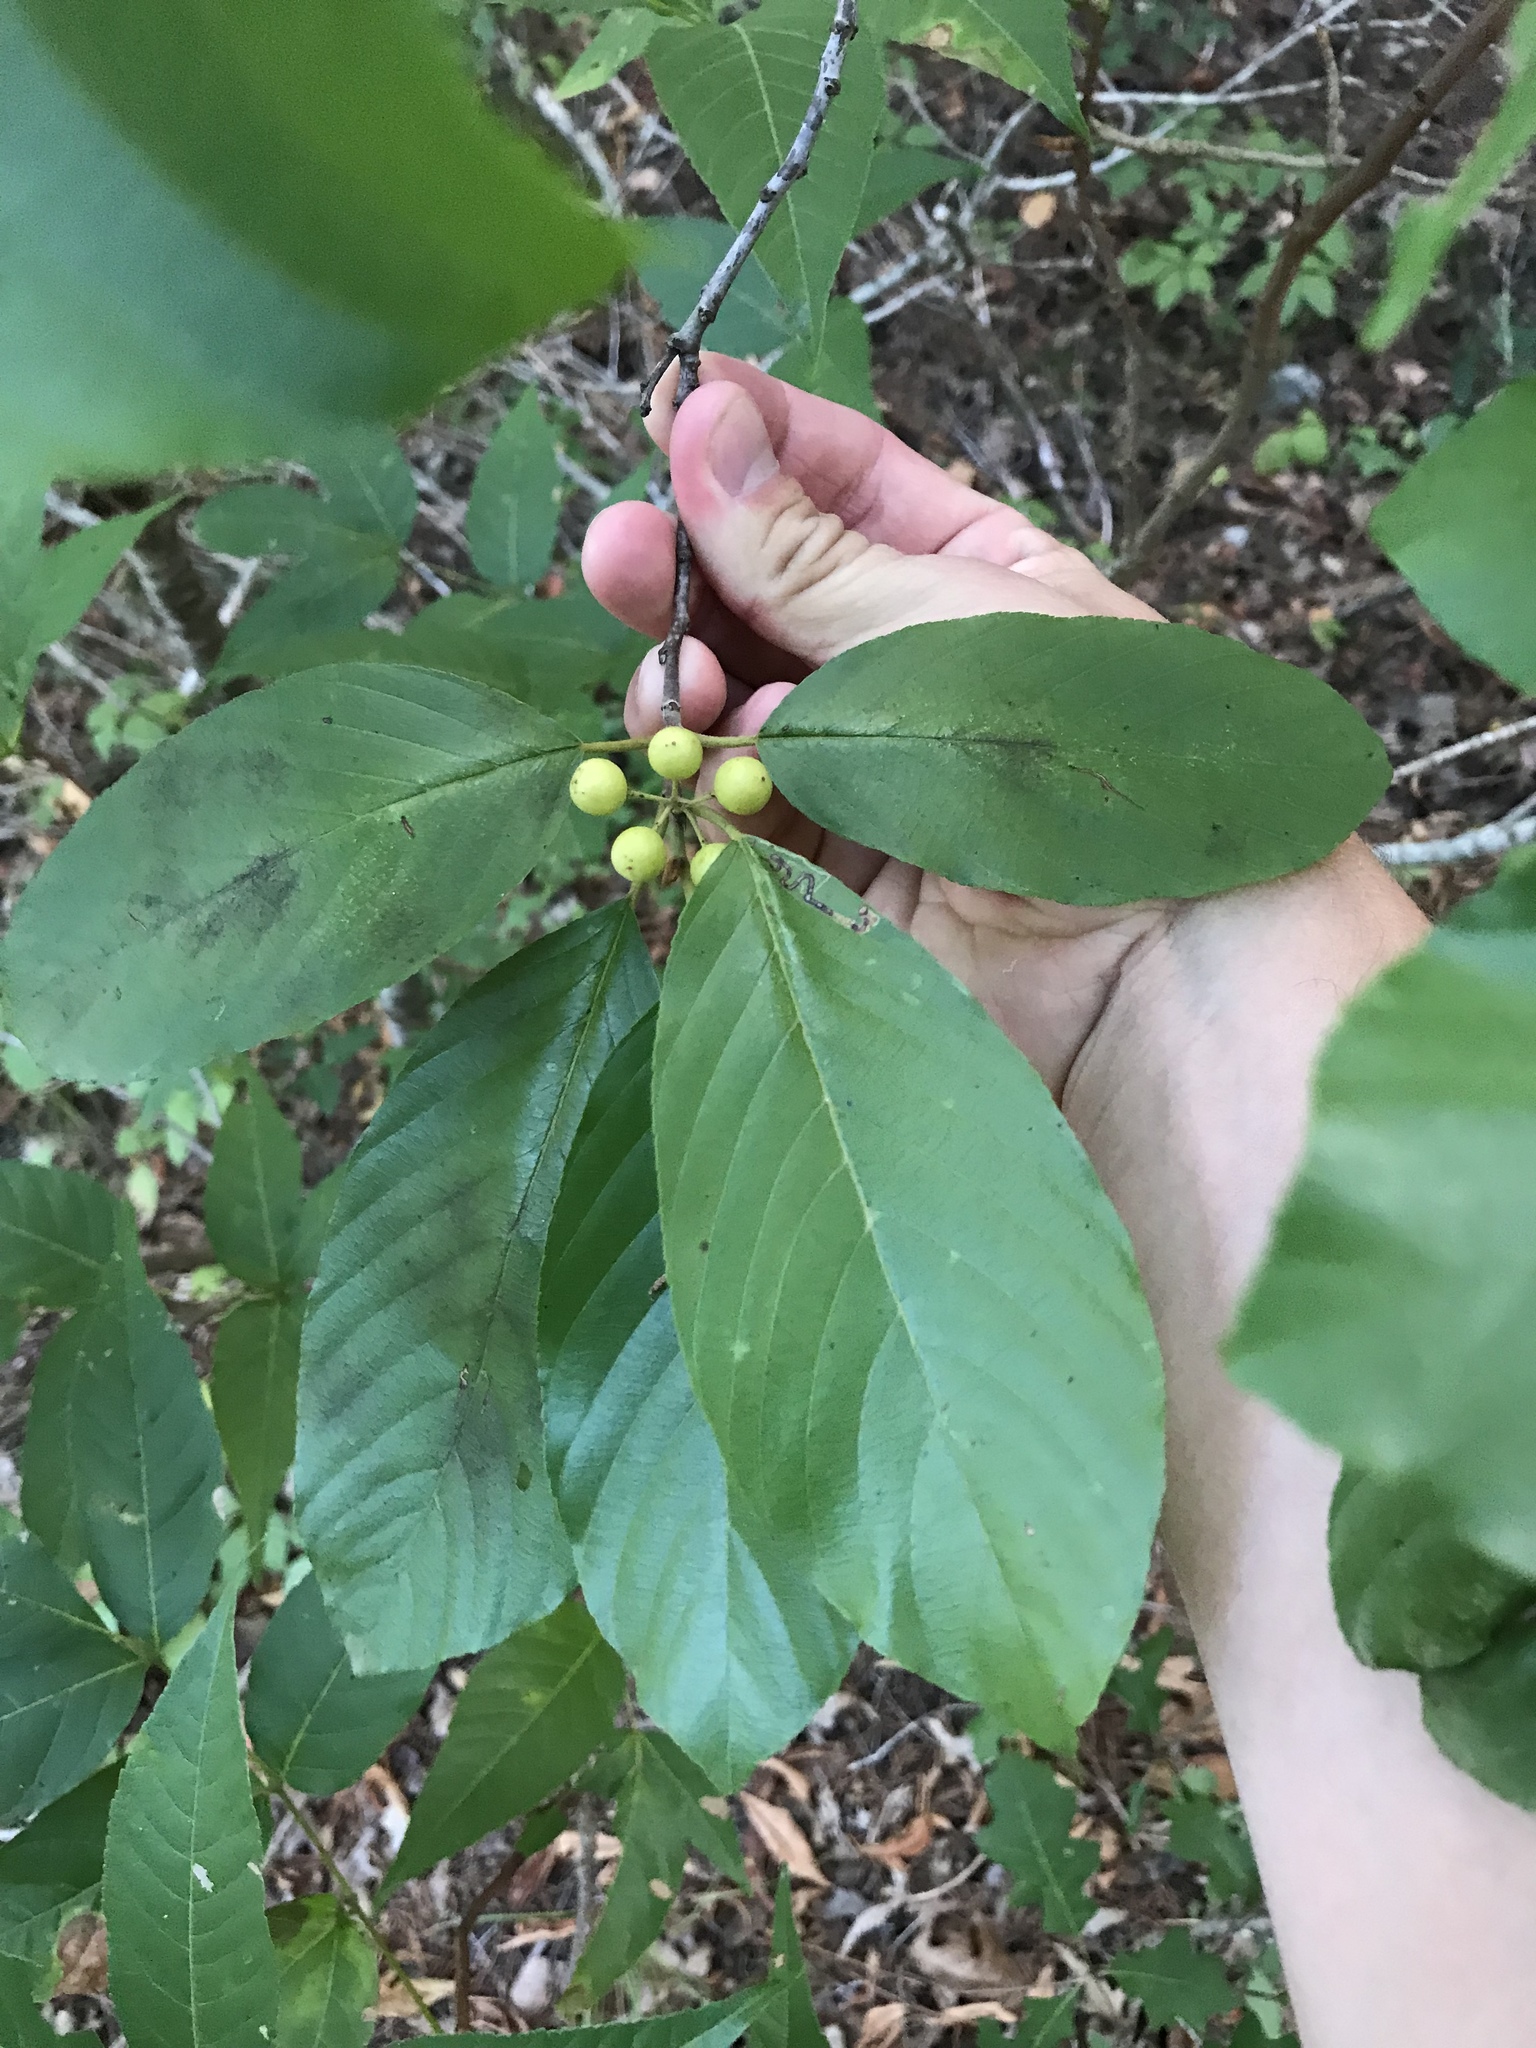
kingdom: Plantae
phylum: Tracheophyta
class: Magnoliopsida
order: Rosales
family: Rhamnaceae
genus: Frangula
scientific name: Frangula caroliniana
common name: Carolina buckthorn
